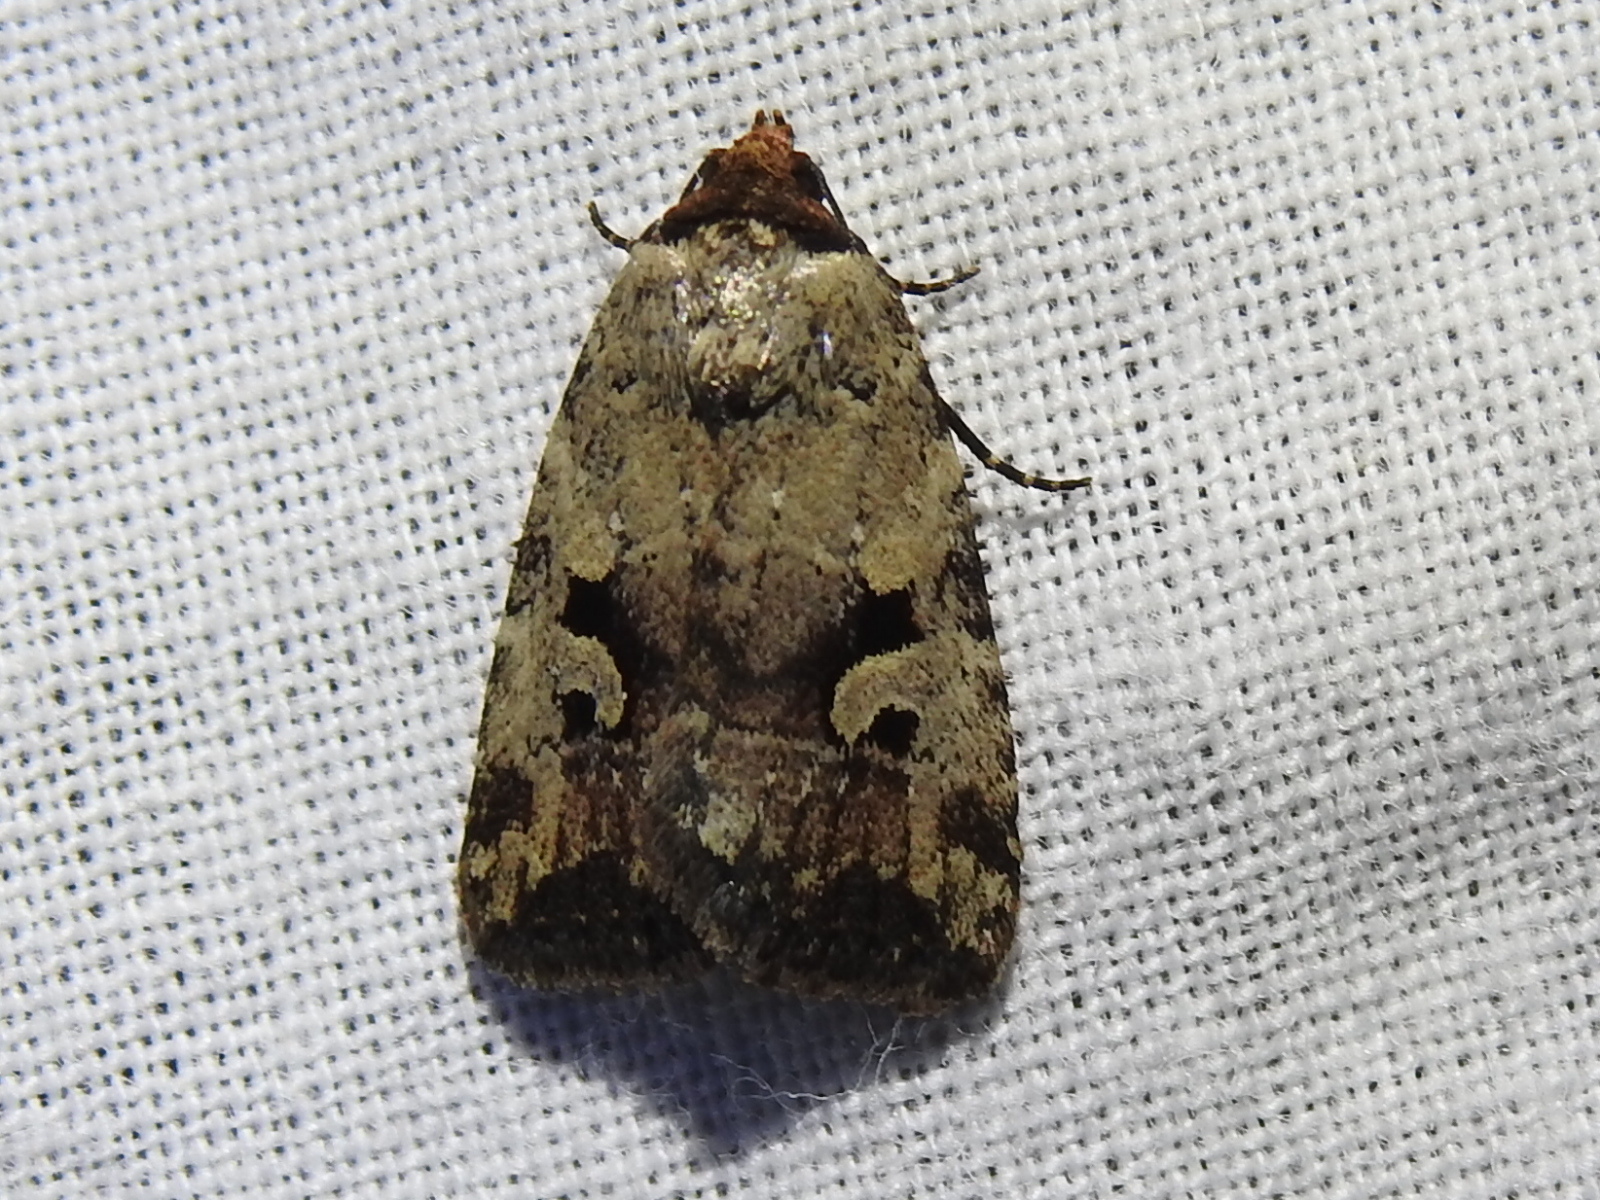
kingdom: Animalia
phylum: Arthropoda
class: Insecta
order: Lepidoptera
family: Noctuidae
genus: Elaphria
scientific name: Elaphria festivoides
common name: Festive midget
